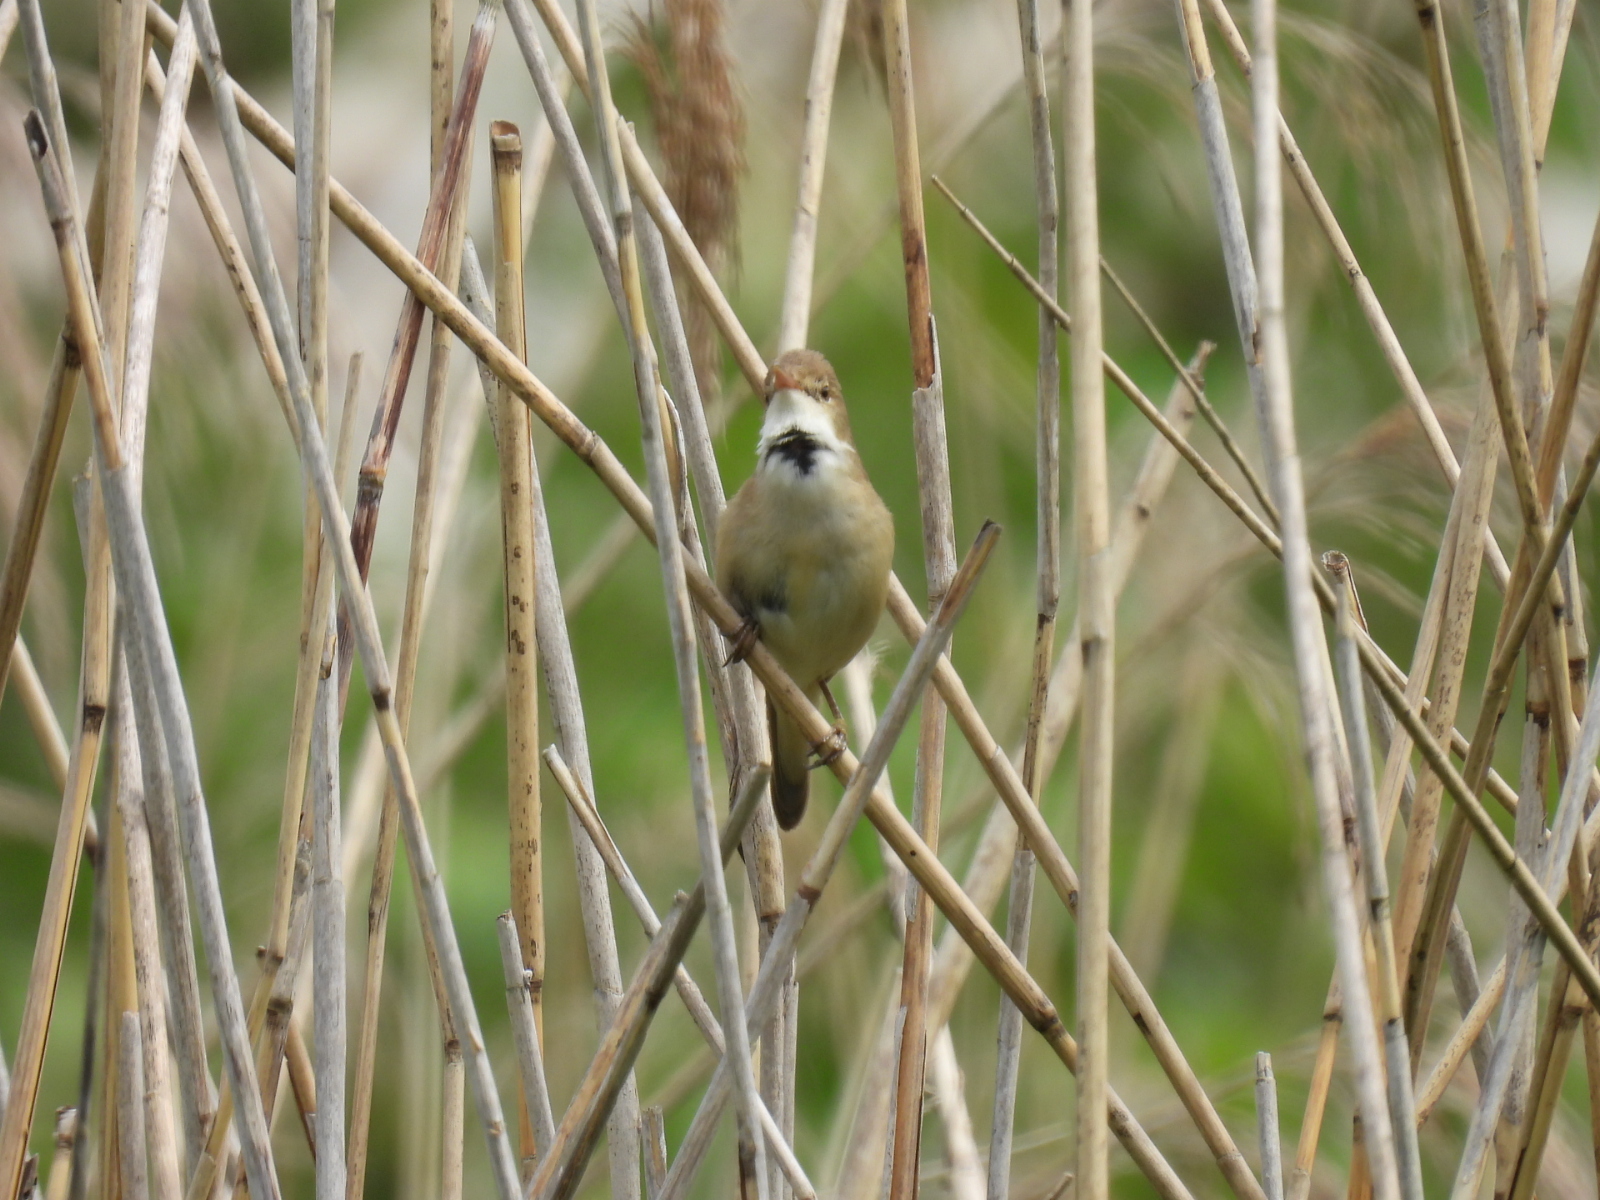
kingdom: Animalia
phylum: Chordata
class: Aves
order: Passeriformes
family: Acrocephalidae
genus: Acrocephalus
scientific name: Acrocephalus scirpaceus
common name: Eurasian reed warbler
